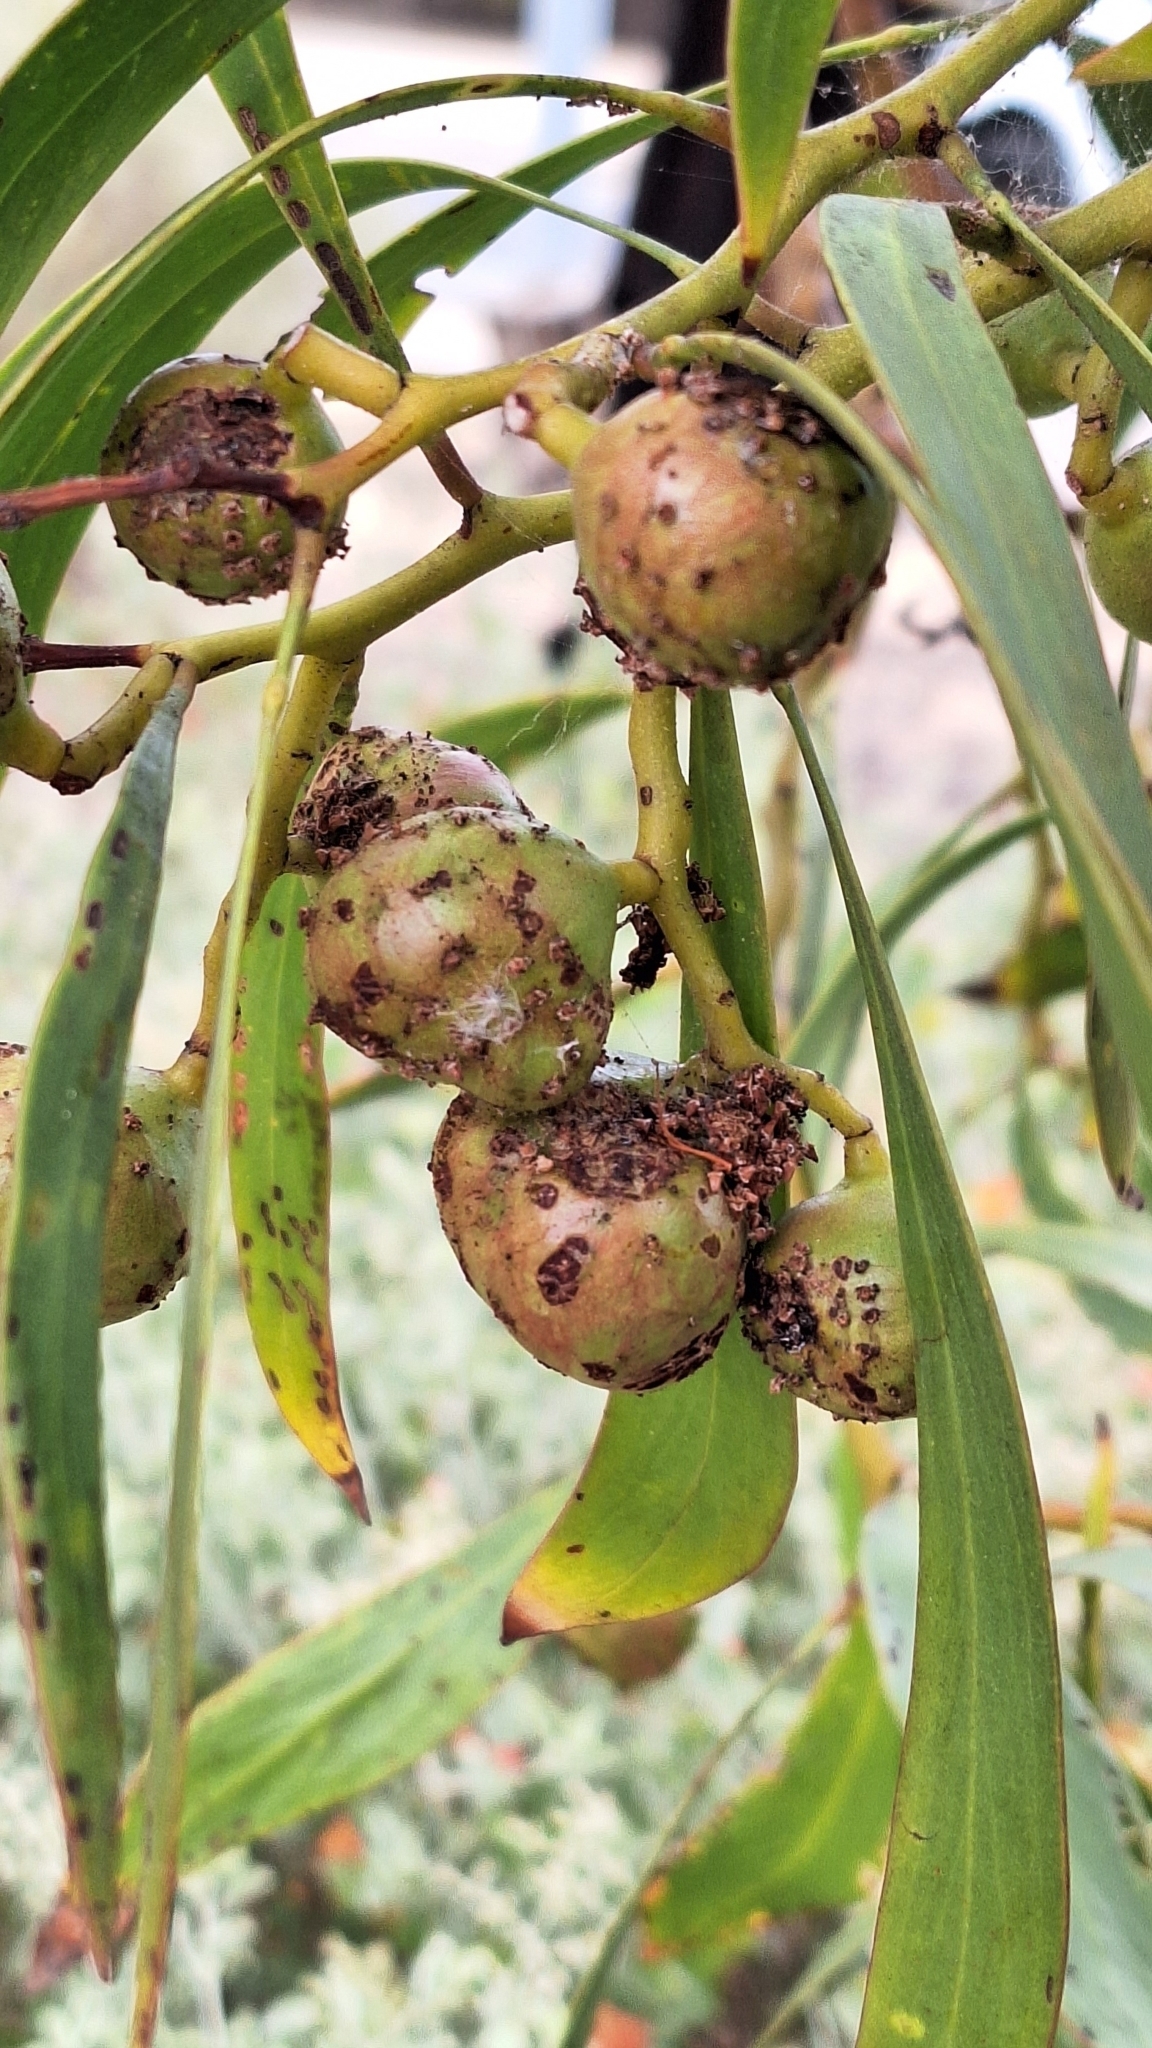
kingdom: Animalia
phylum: Arthropoda
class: Insecta
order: Hymenoptera
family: Pteromalidae
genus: Trichilogaster
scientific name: Trichilogaster signiventris
